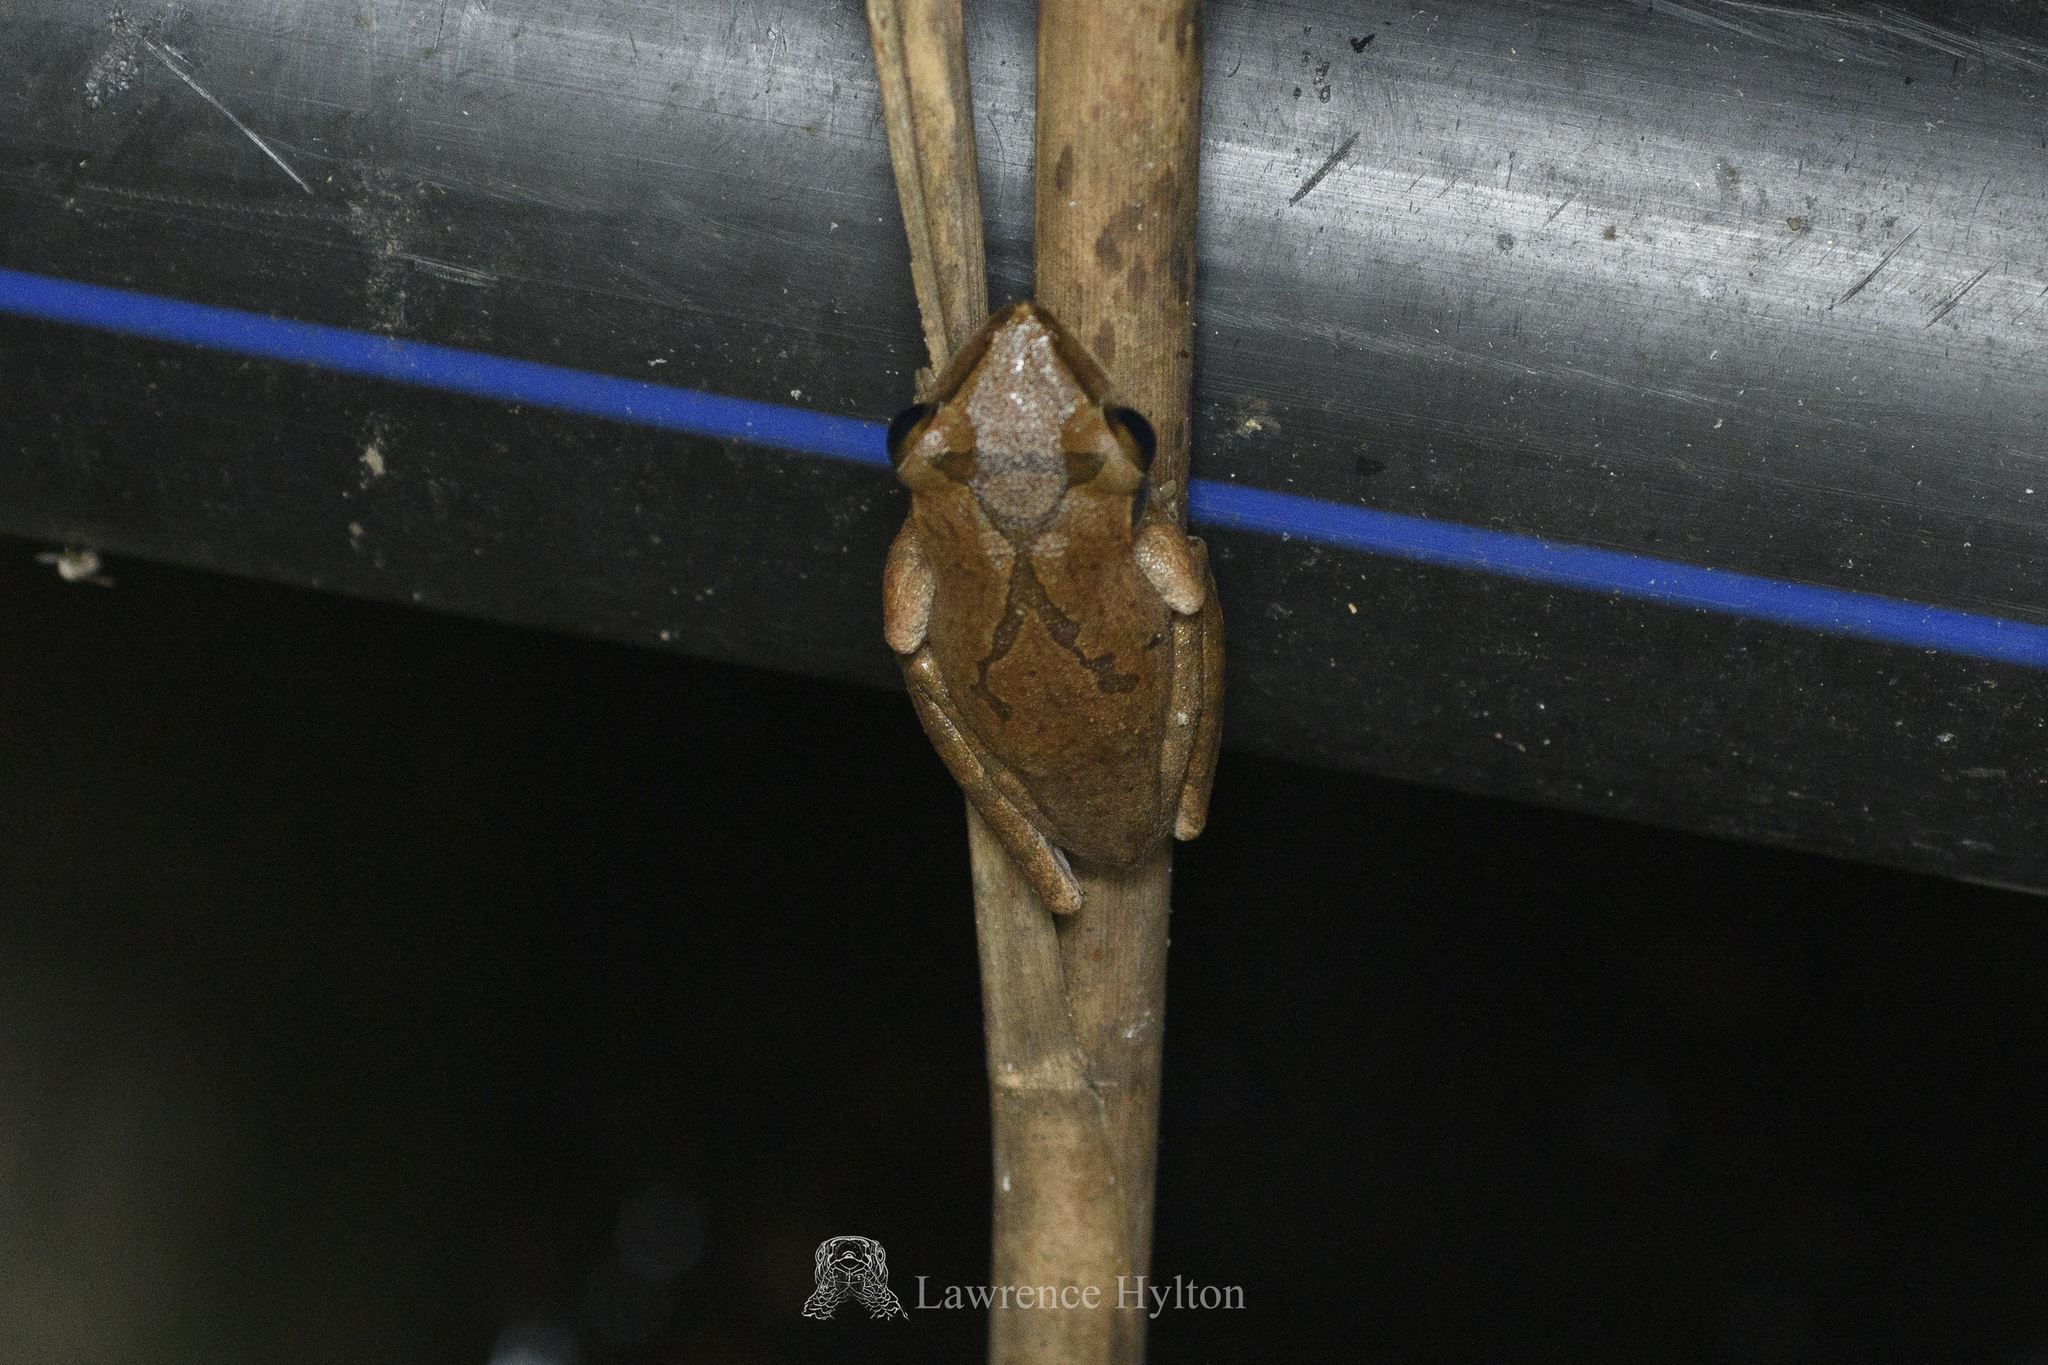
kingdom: Animalia
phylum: Chordata
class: Amphibia
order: Anura
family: Rhacophoridae
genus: Polypedates
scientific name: Polypedates megacephalus
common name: Hong kong whipping frog
